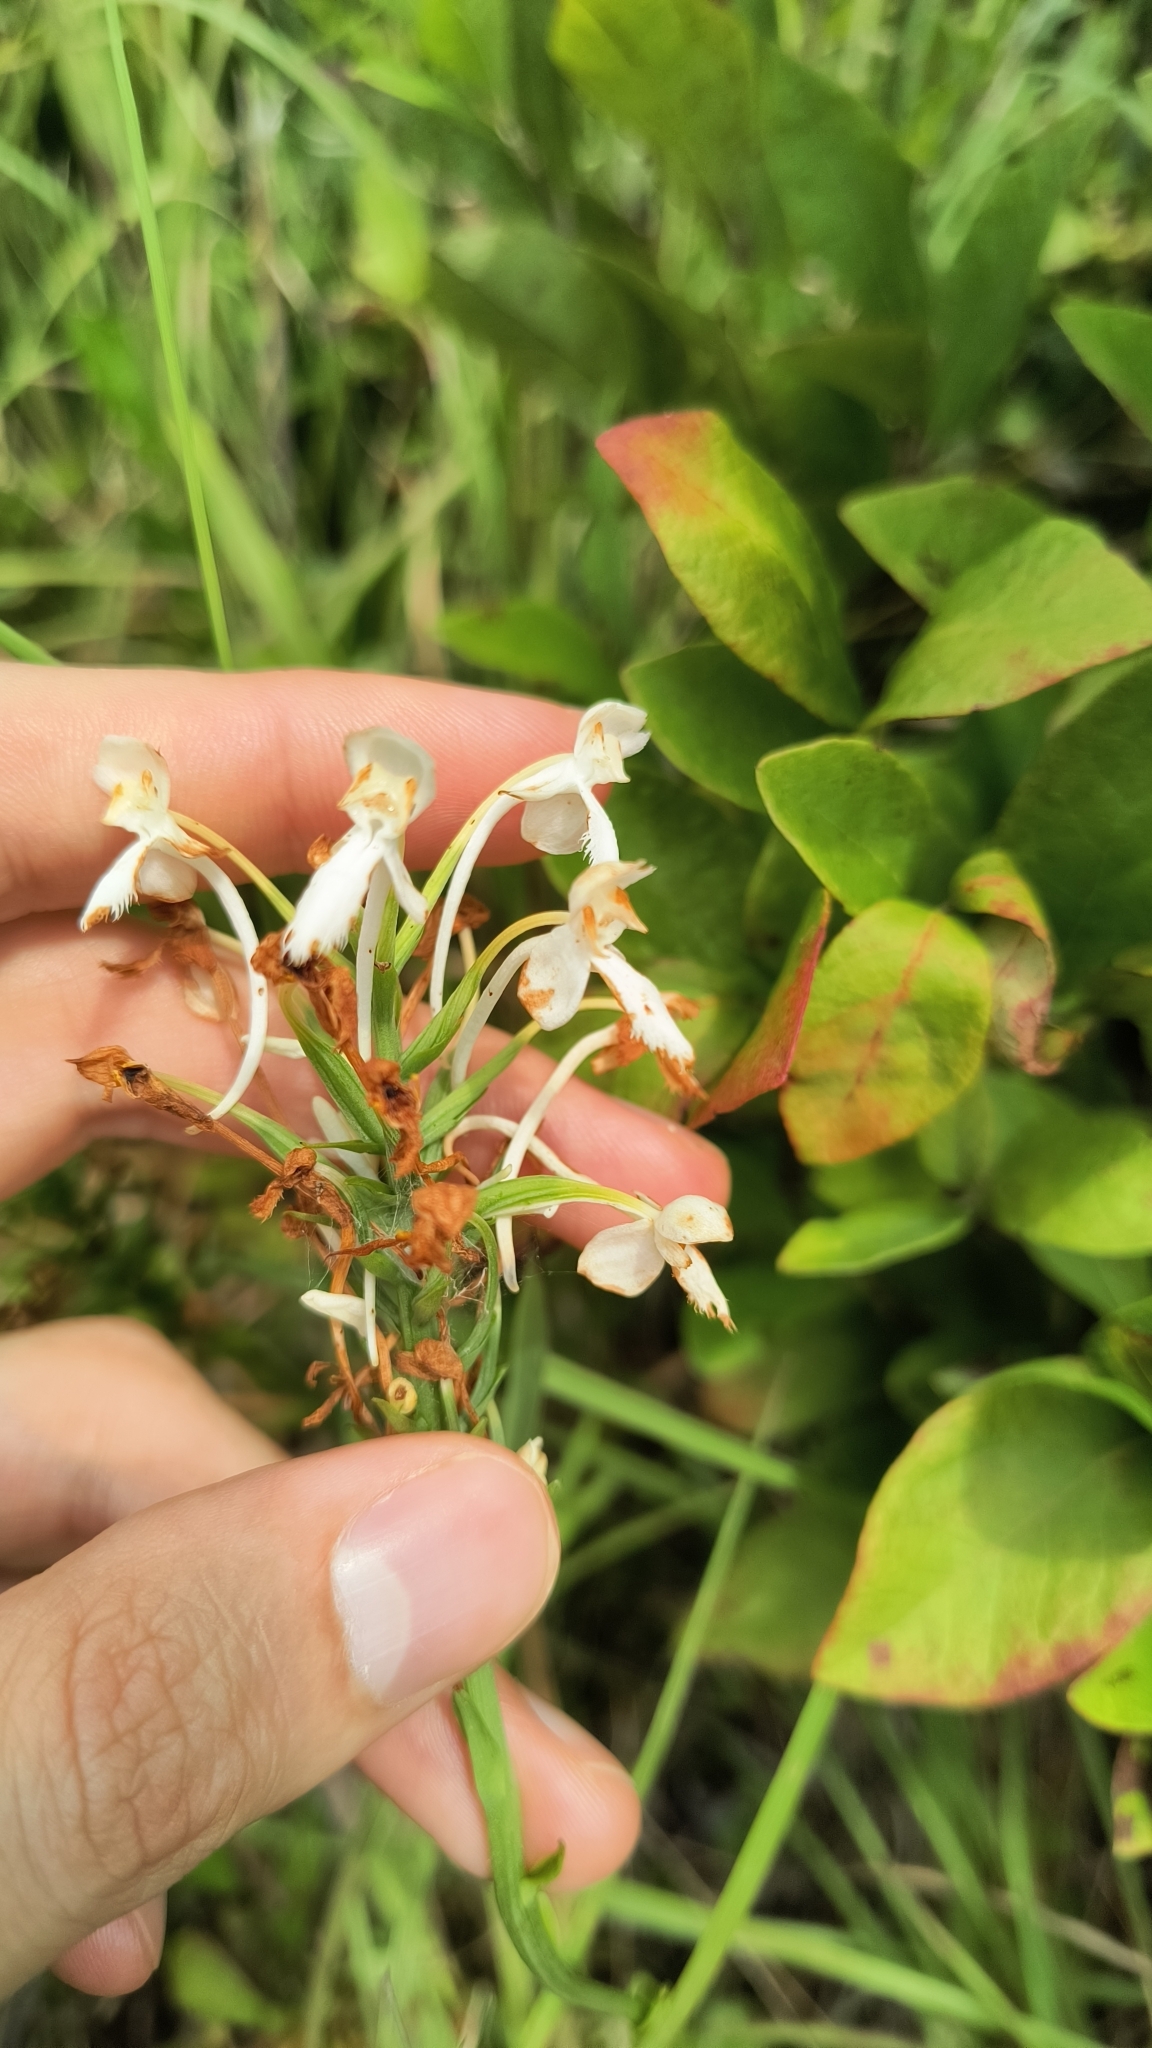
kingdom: Plantae
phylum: Tracheophyta
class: Liliopsida
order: Asparagales
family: Orchidaceae
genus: Platanthera
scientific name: Platanthera blephariglottis
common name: White fringed orchid
